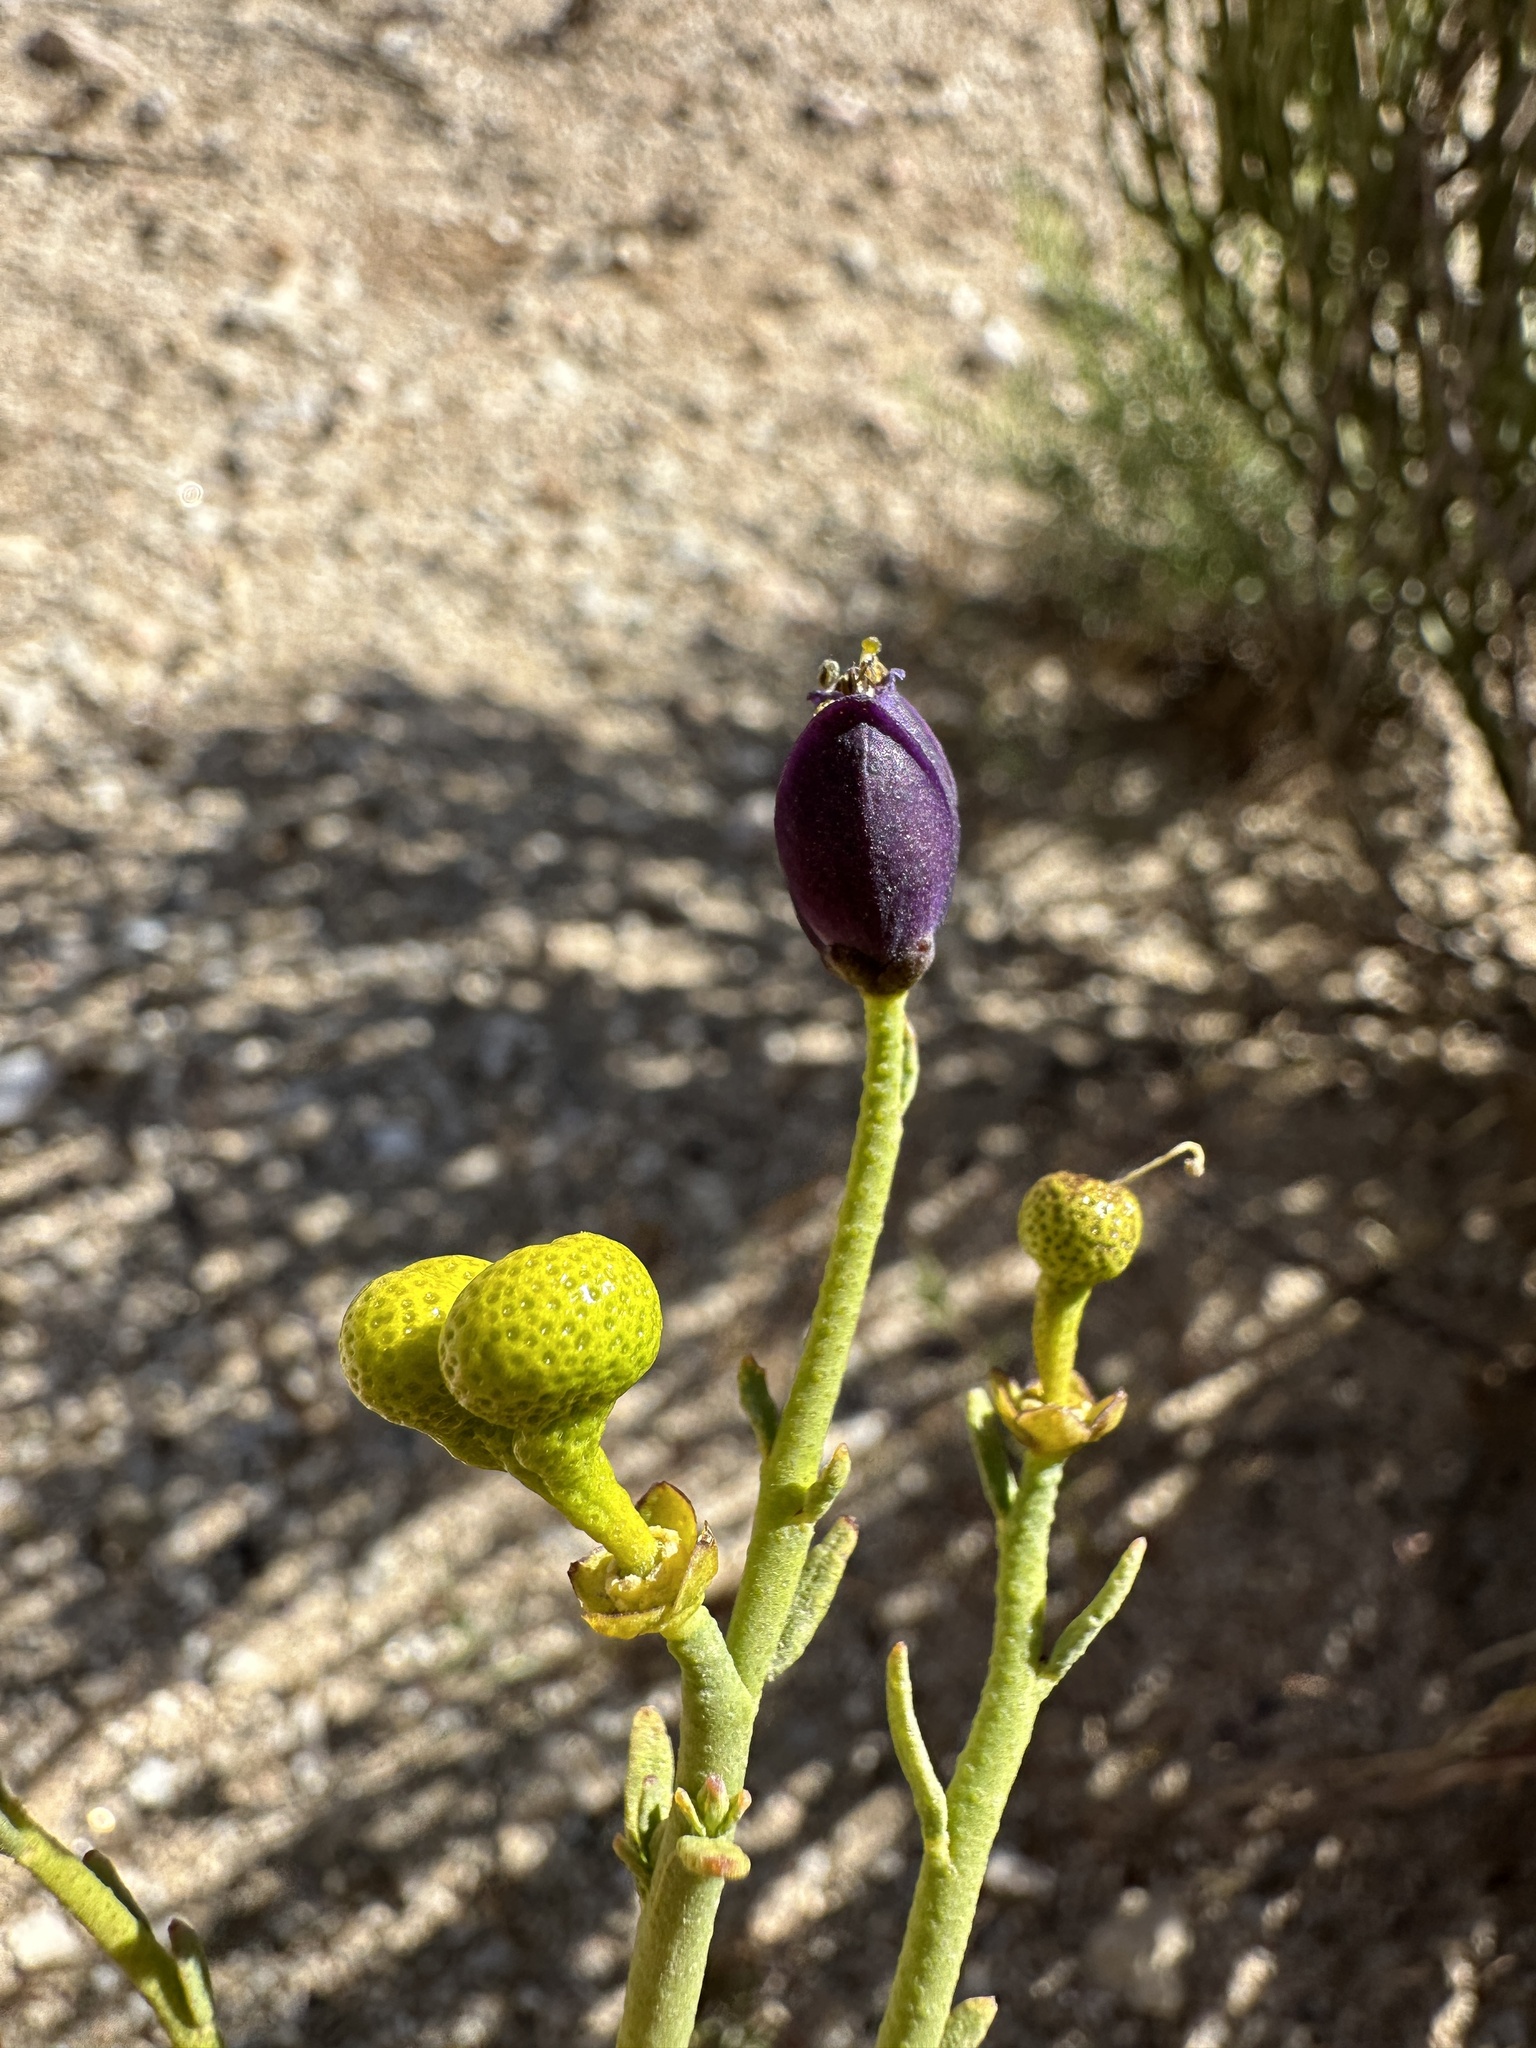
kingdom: Plantae
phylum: Tracheophyta
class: Magnoliopsida
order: Sapindales
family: Rutaceae
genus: Thamnosma
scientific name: Thamnosma montana
